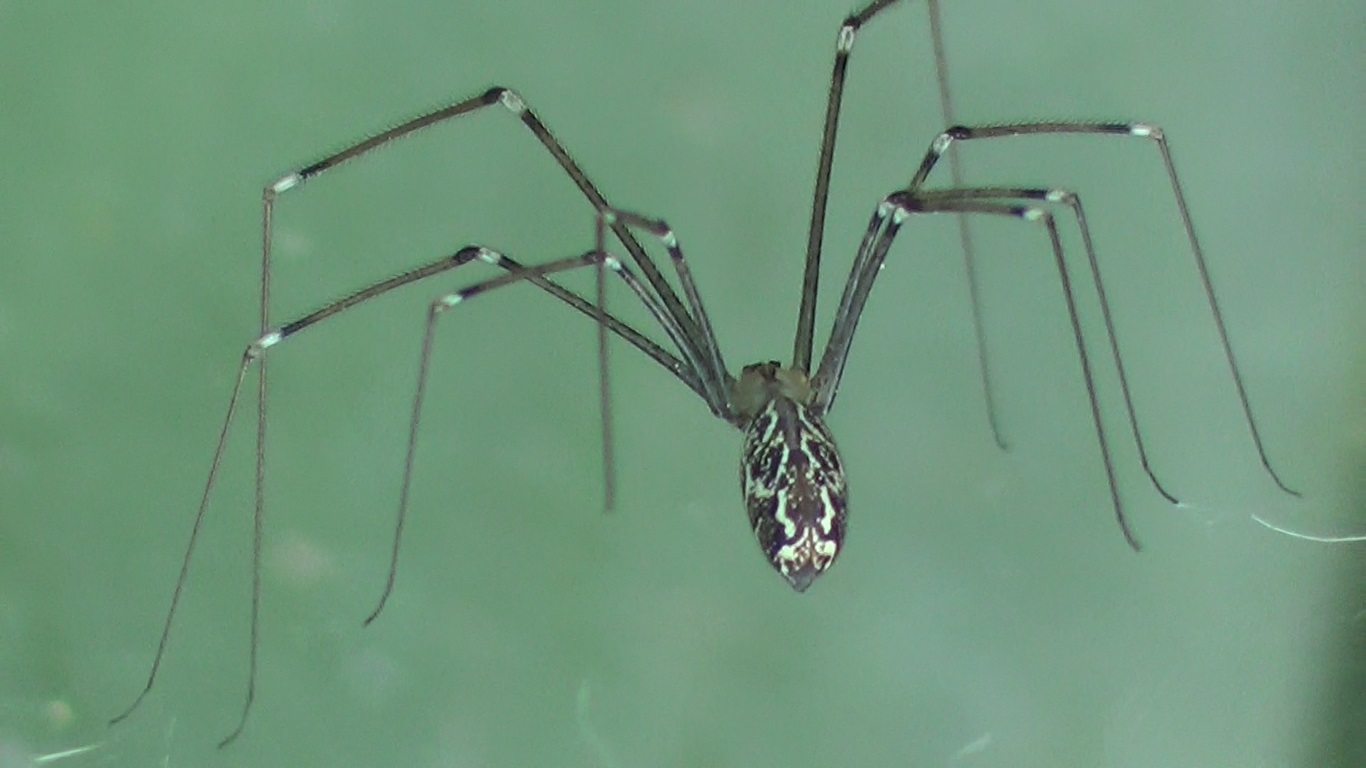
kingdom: Animalia
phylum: Arthropoda
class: Arachnida
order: Araneae
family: Pholcidae
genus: Holocnemus
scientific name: Holocnemus pluchei
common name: Marbled cellar spider
